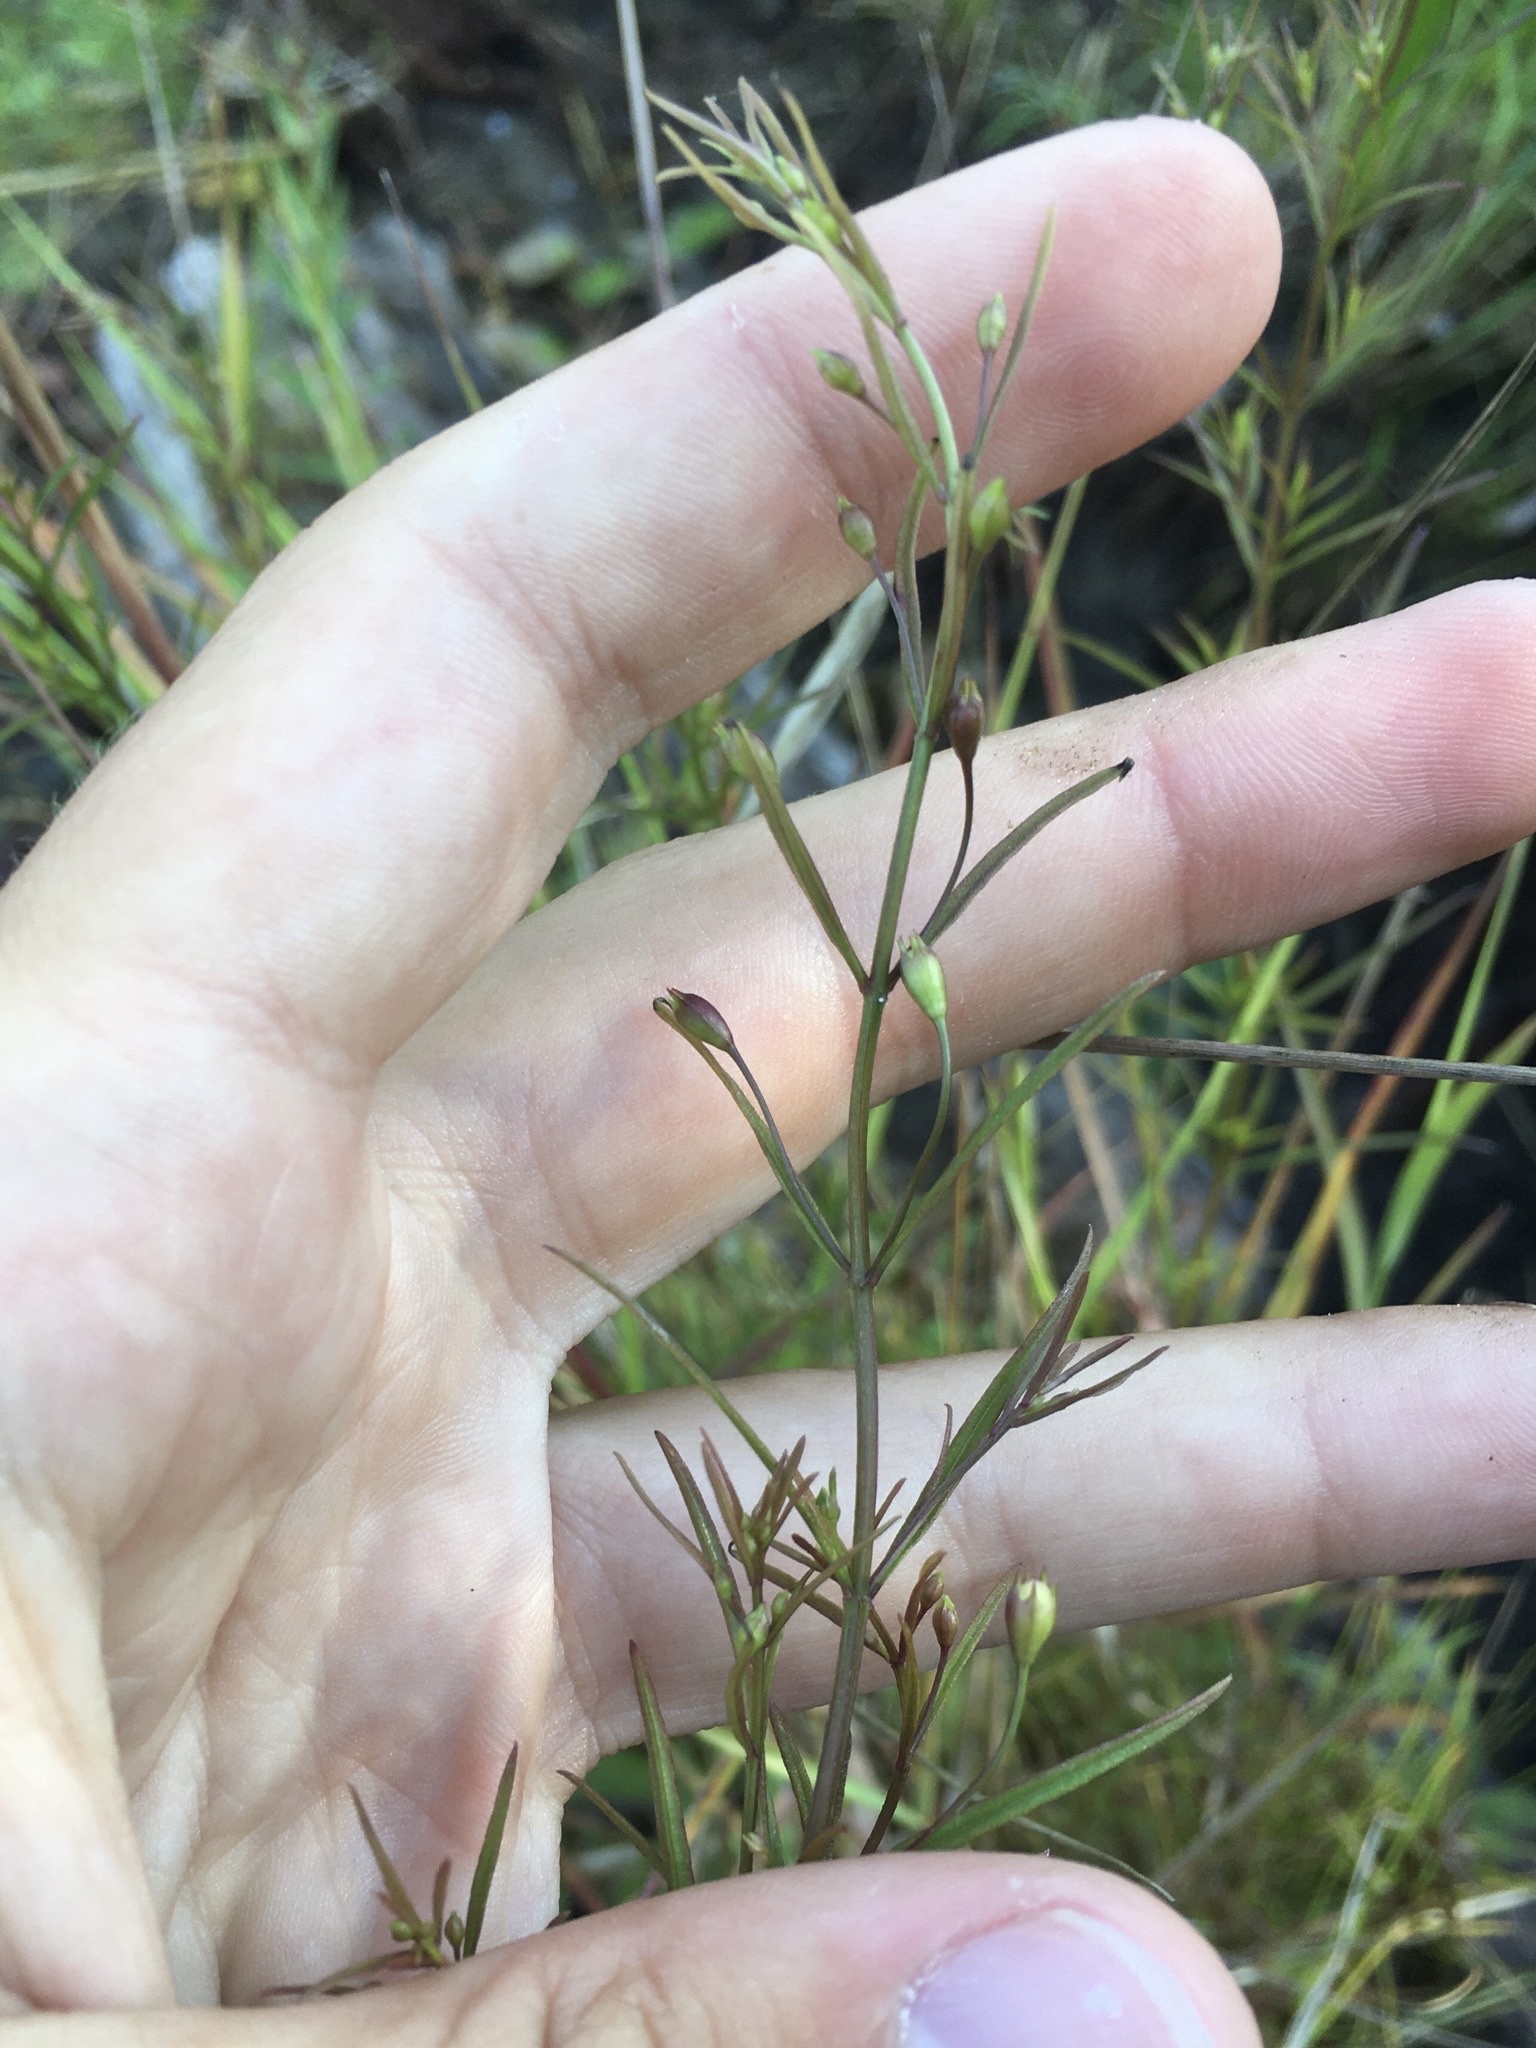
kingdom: Plantae
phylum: Tracheophyta
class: Magnoliopsida
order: Lamiales
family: Orobanchaceae
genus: Agalinis
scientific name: Agalinis tenuifolia
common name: Slender agalinis
